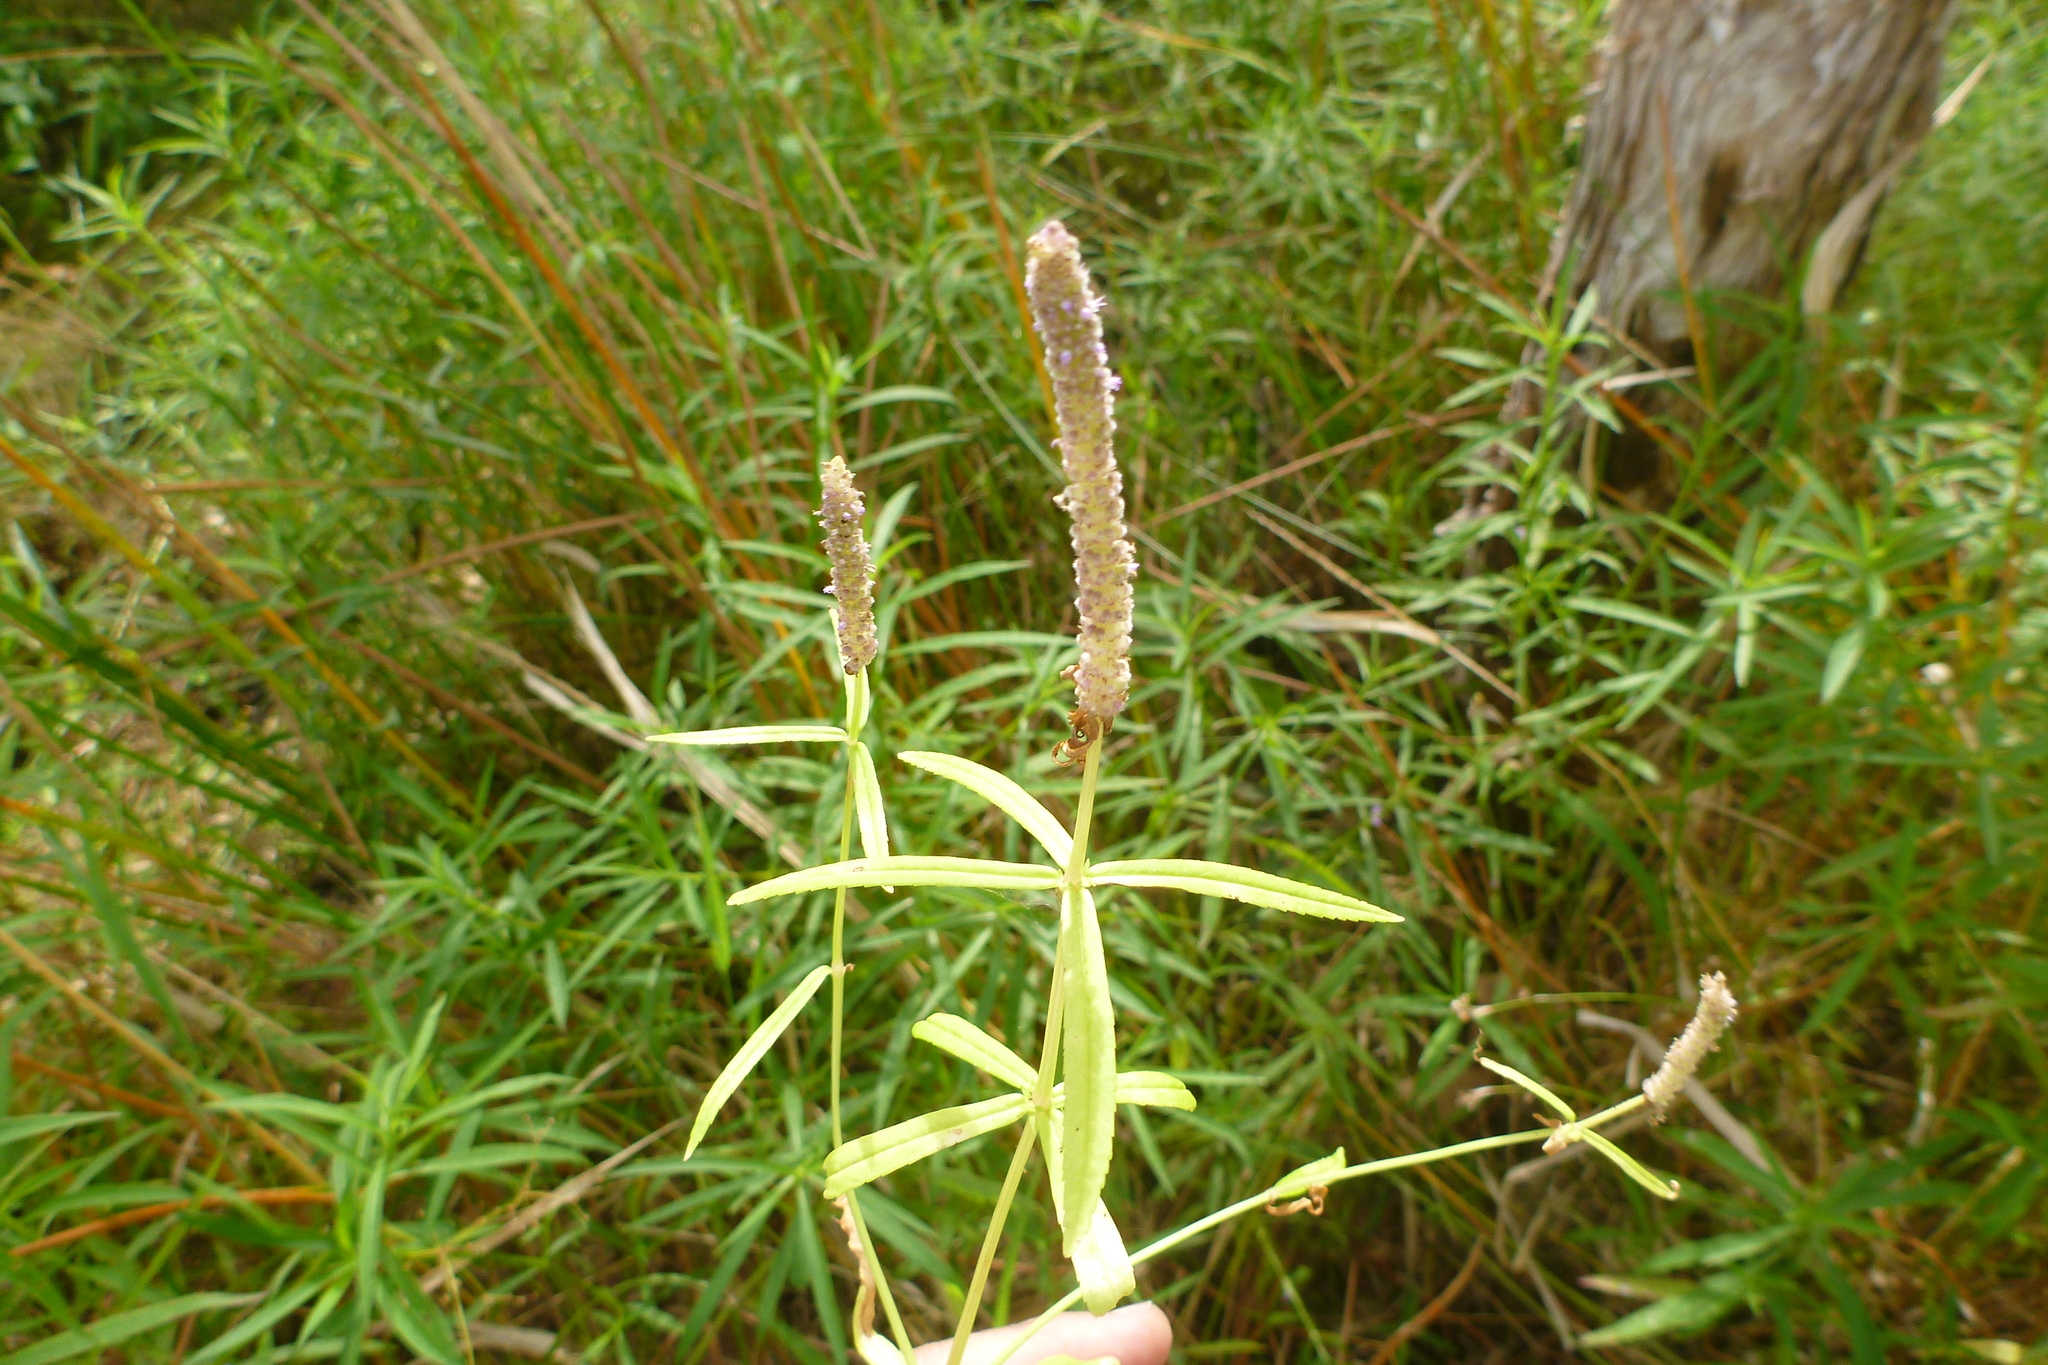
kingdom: Plantae
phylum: Tracheophyta
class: Magnoliopsida
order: Lamiales
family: Lamiaceae
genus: Pogostemon
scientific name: Pogostemon stellatus
